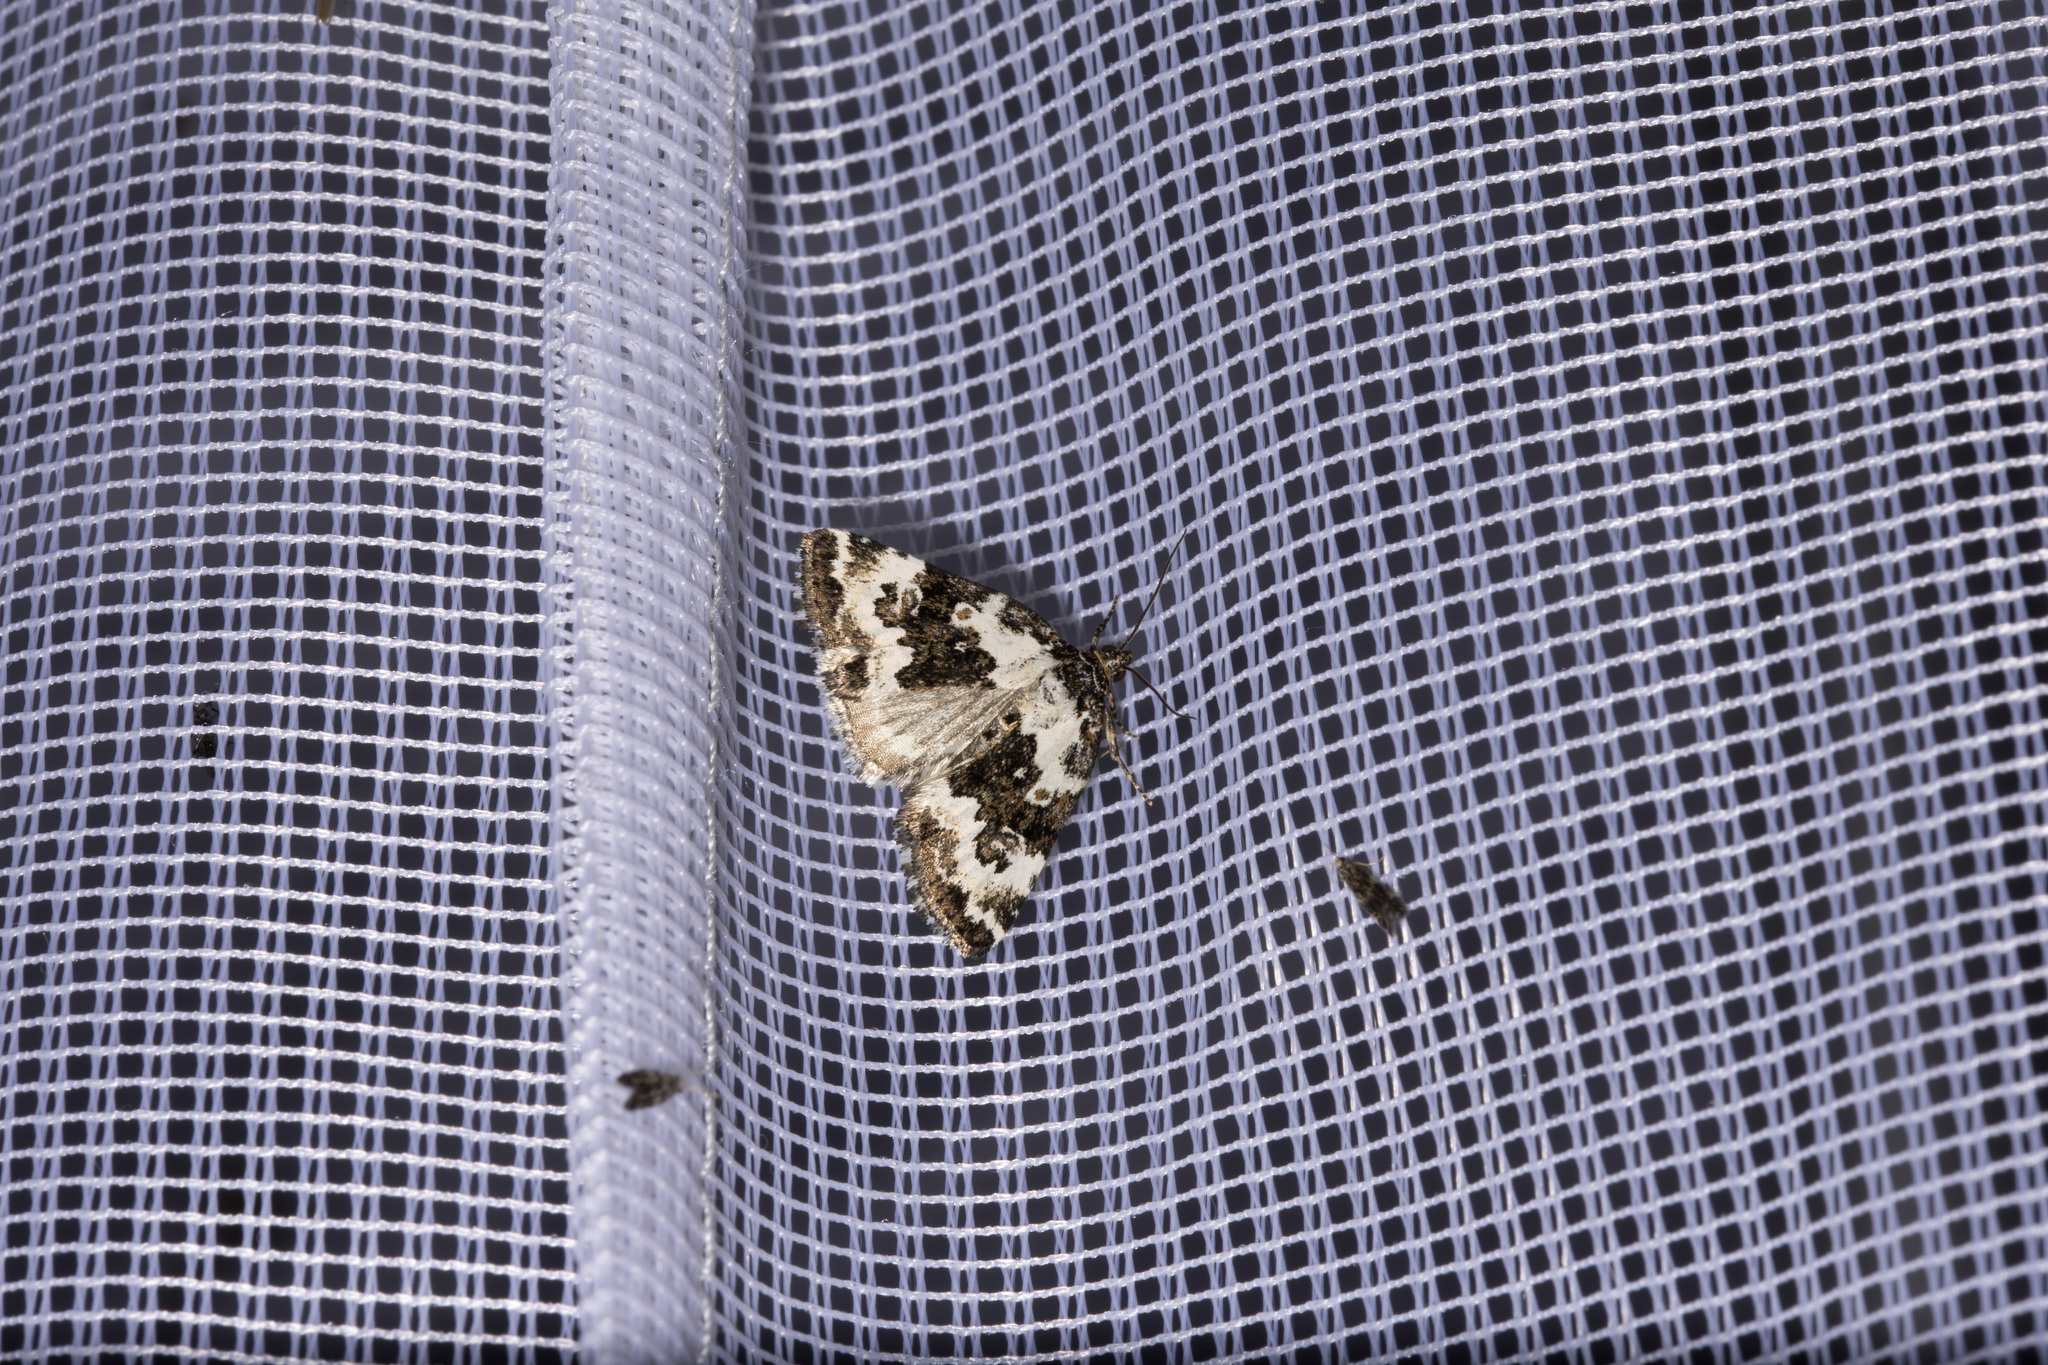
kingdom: Animalia
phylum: Arthropoda
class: Insecta
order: Lepidoptera
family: Noctuidae
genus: Deltote
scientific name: Deltote deceptoria
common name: Pretty marbled
